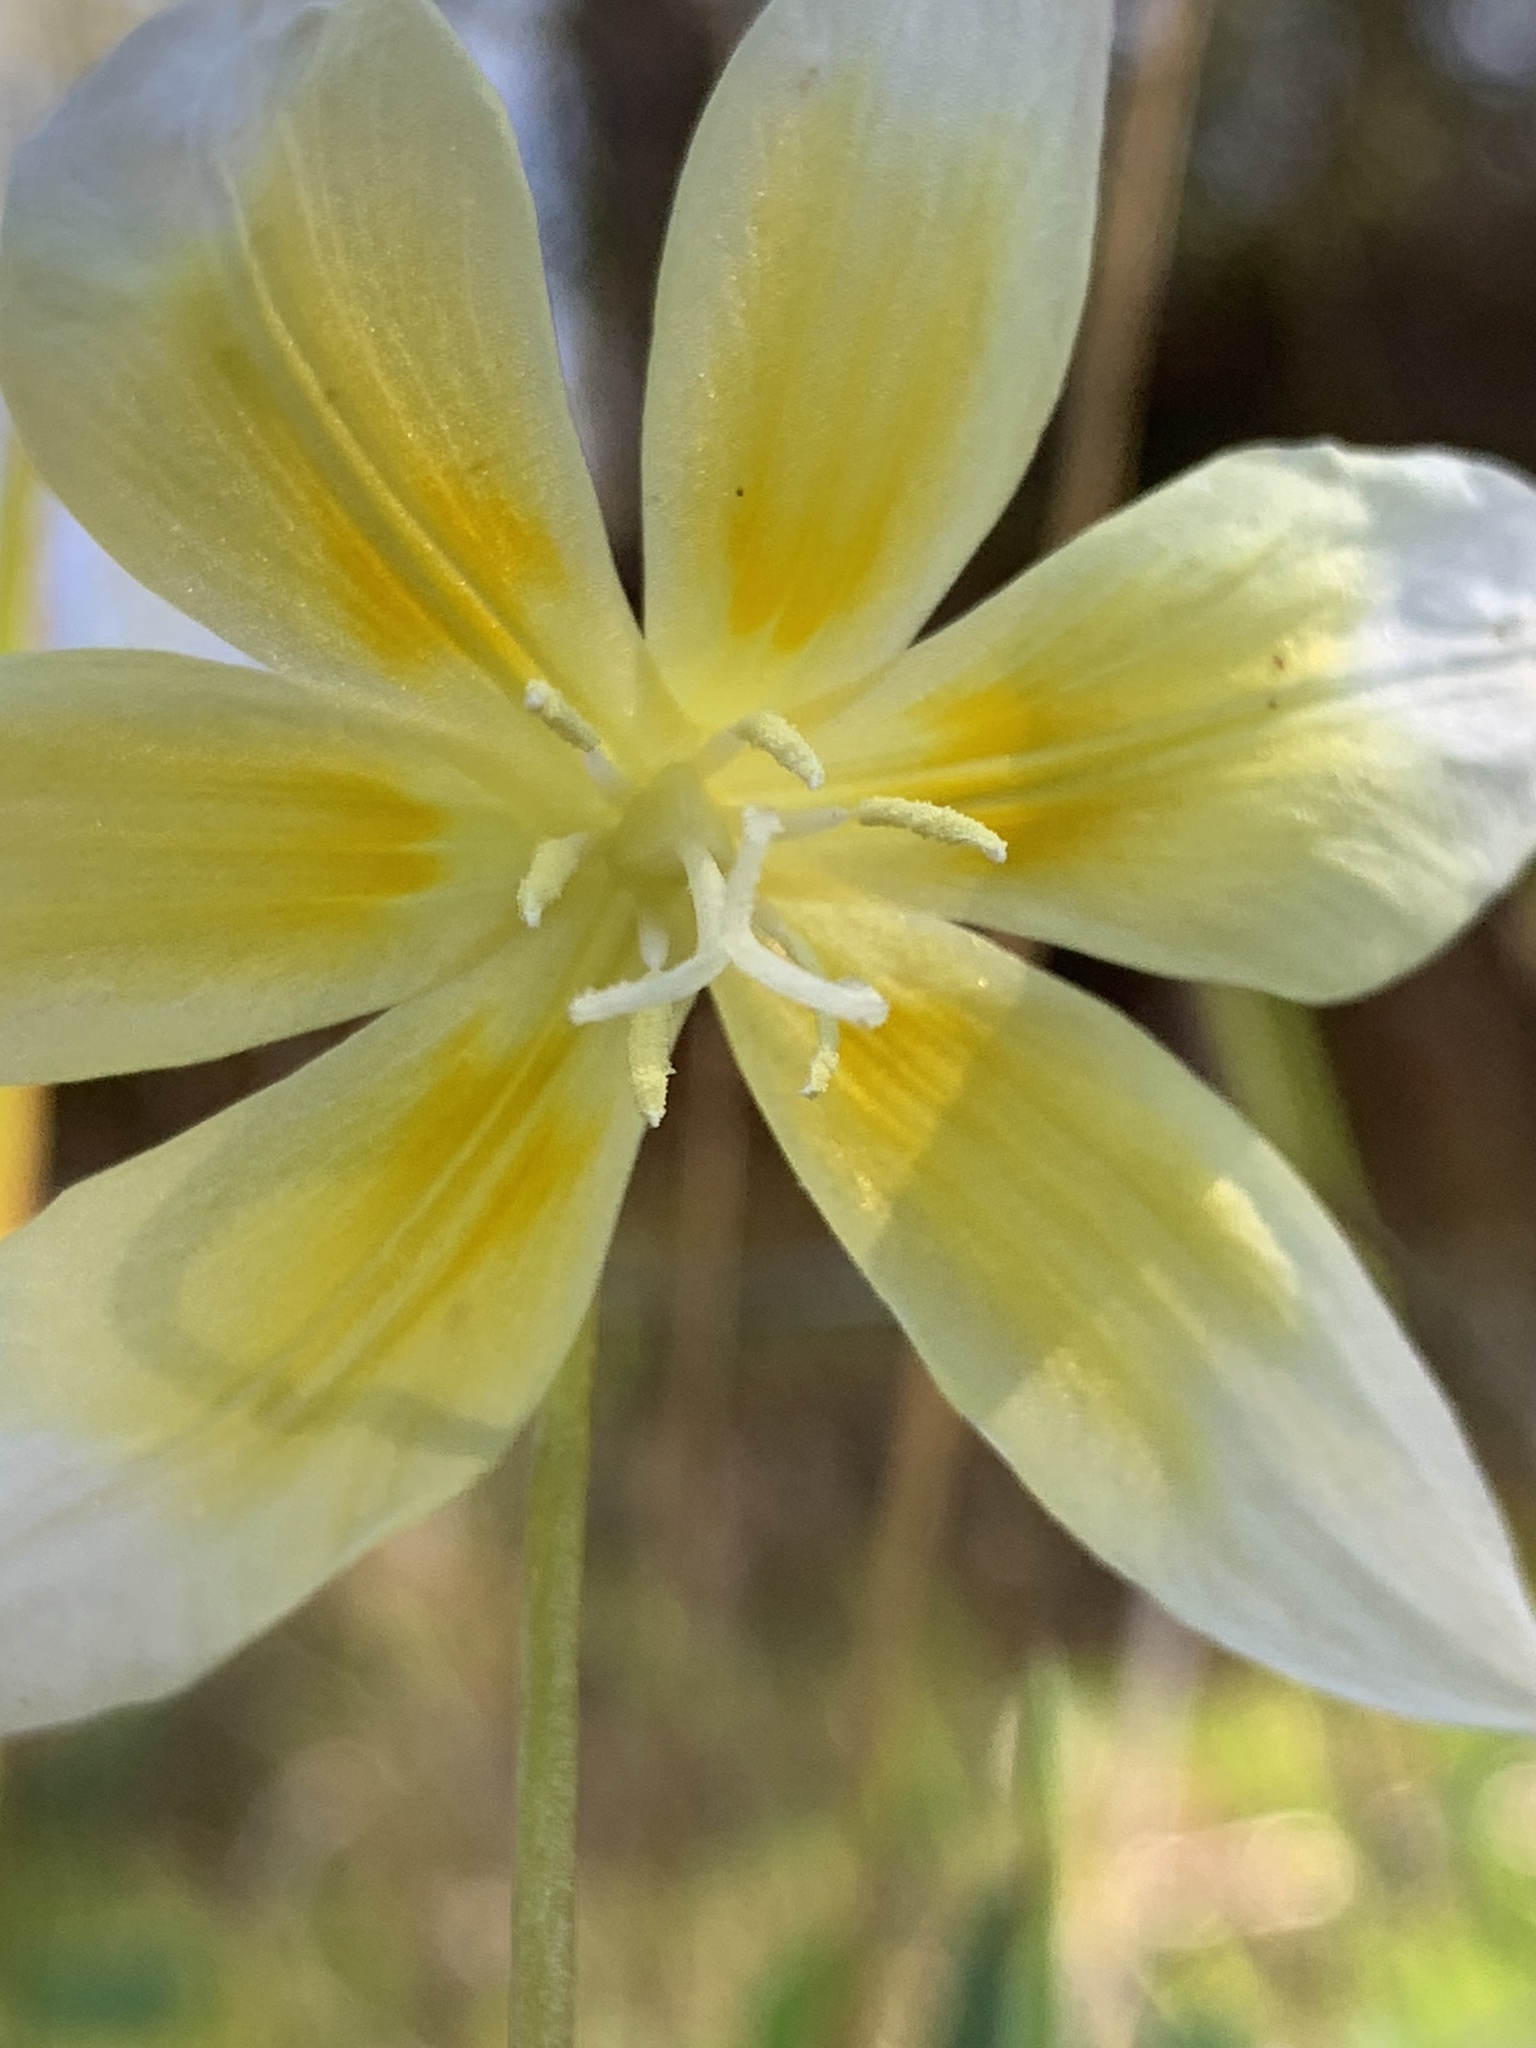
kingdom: Plantae
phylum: Tracheophyta
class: Liliopsida
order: Liliales
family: Liliaceae
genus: Erythronium
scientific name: Erythronium multiscapideum
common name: Sierra foothills fawn-lily
